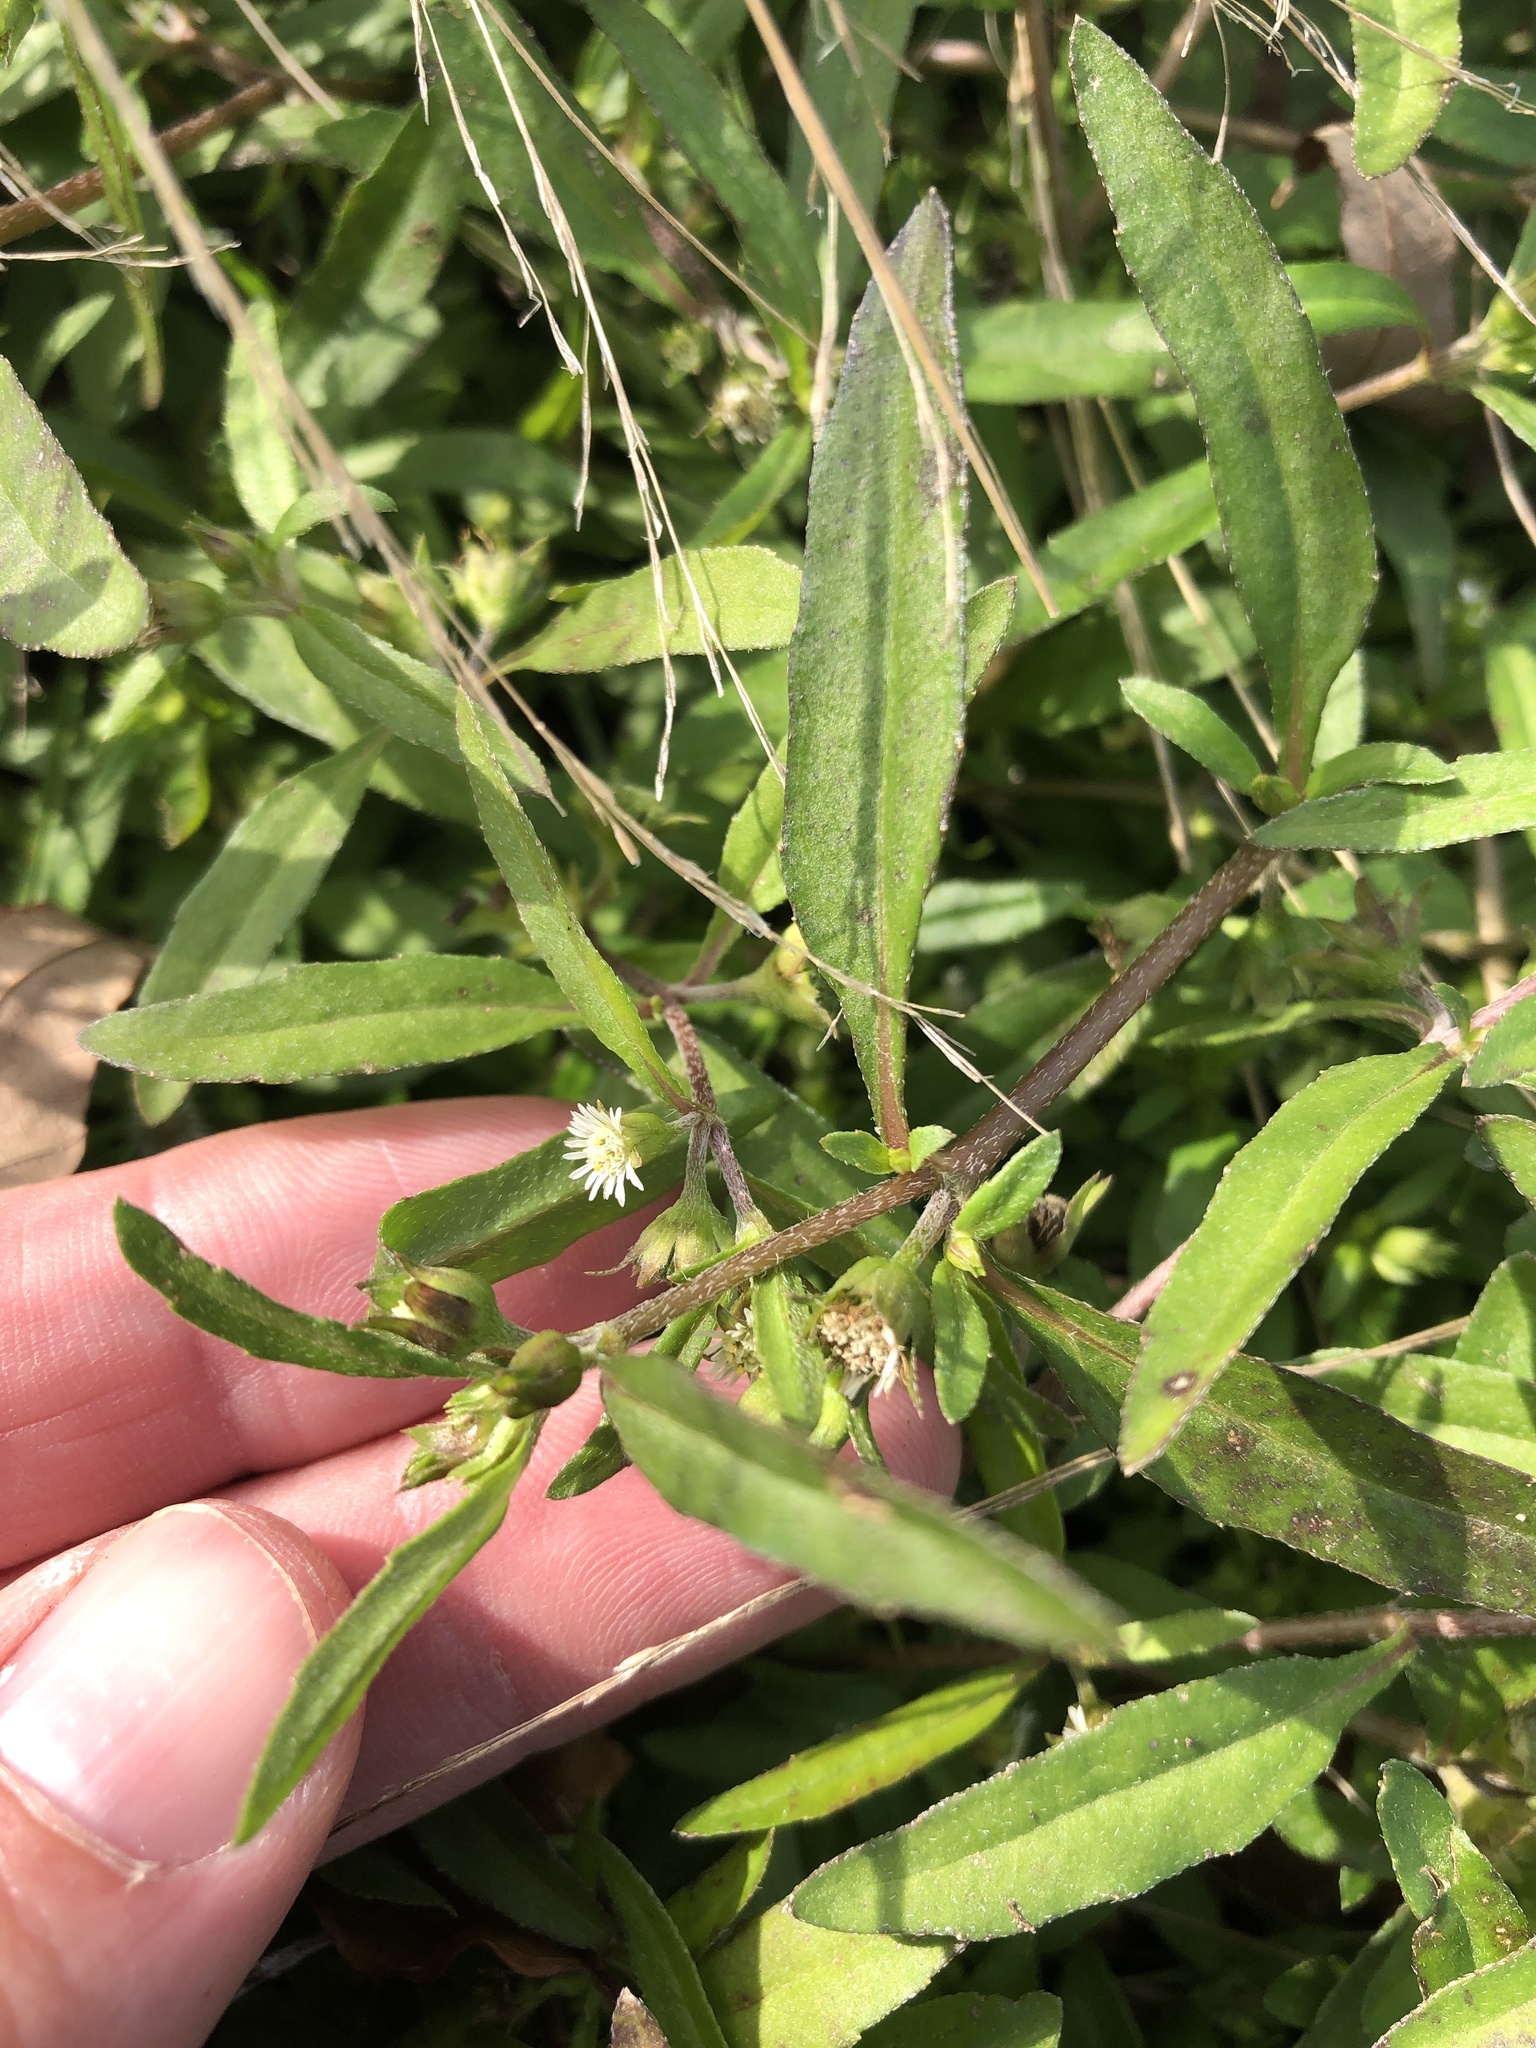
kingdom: Plantae
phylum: Tracheophyta
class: Magnoliopsida
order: Asterales
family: Asteraceae
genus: Eclipta
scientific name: Eclipta prostrata
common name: False daisy
